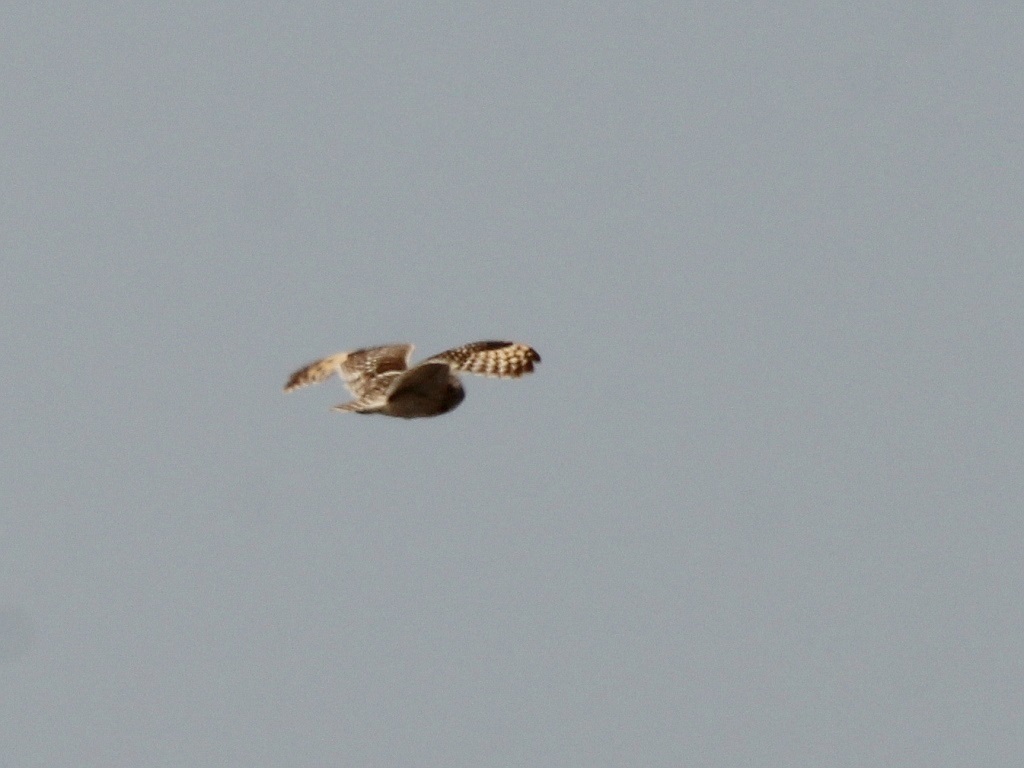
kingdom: Animalia
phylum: Chordata
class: Aves
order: Strigiformes
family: Strigidae
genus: Asio
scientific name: Asio flammeus
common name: Short-eared owl
